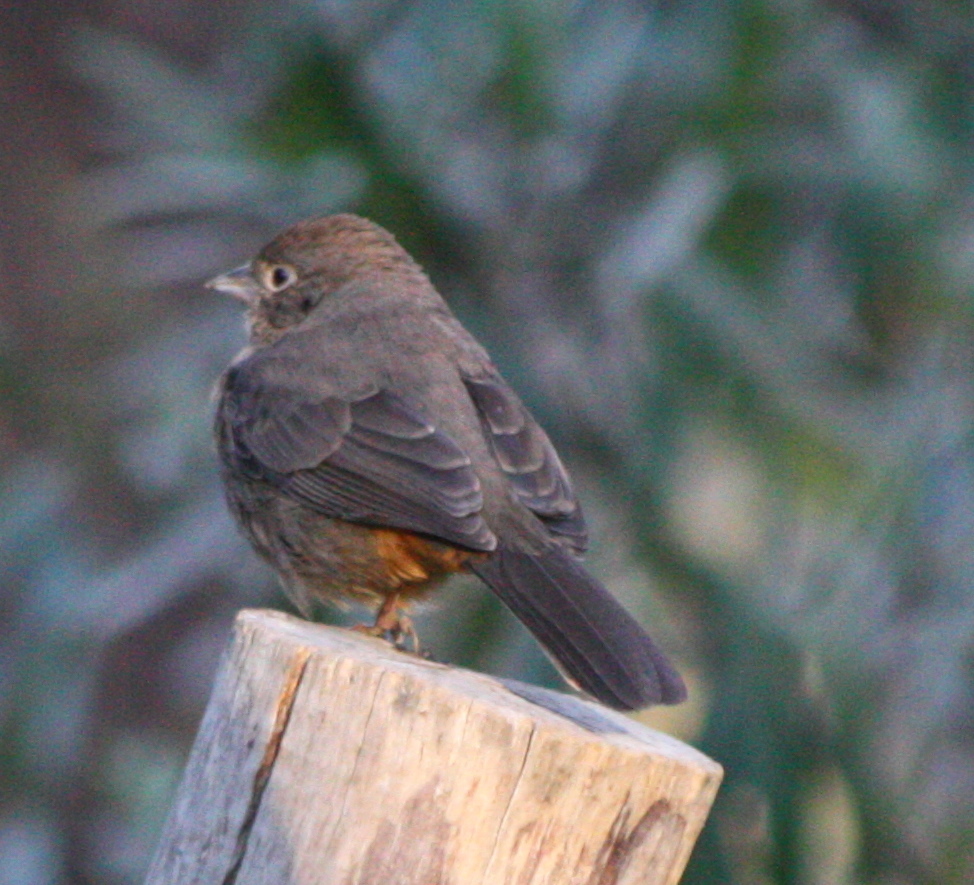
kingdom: Animalia
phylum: Chordata
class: Aves
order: Passeriformes
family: Passerellidae
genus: Melozone
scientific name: Melozone fusca
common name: Canyon towhee
